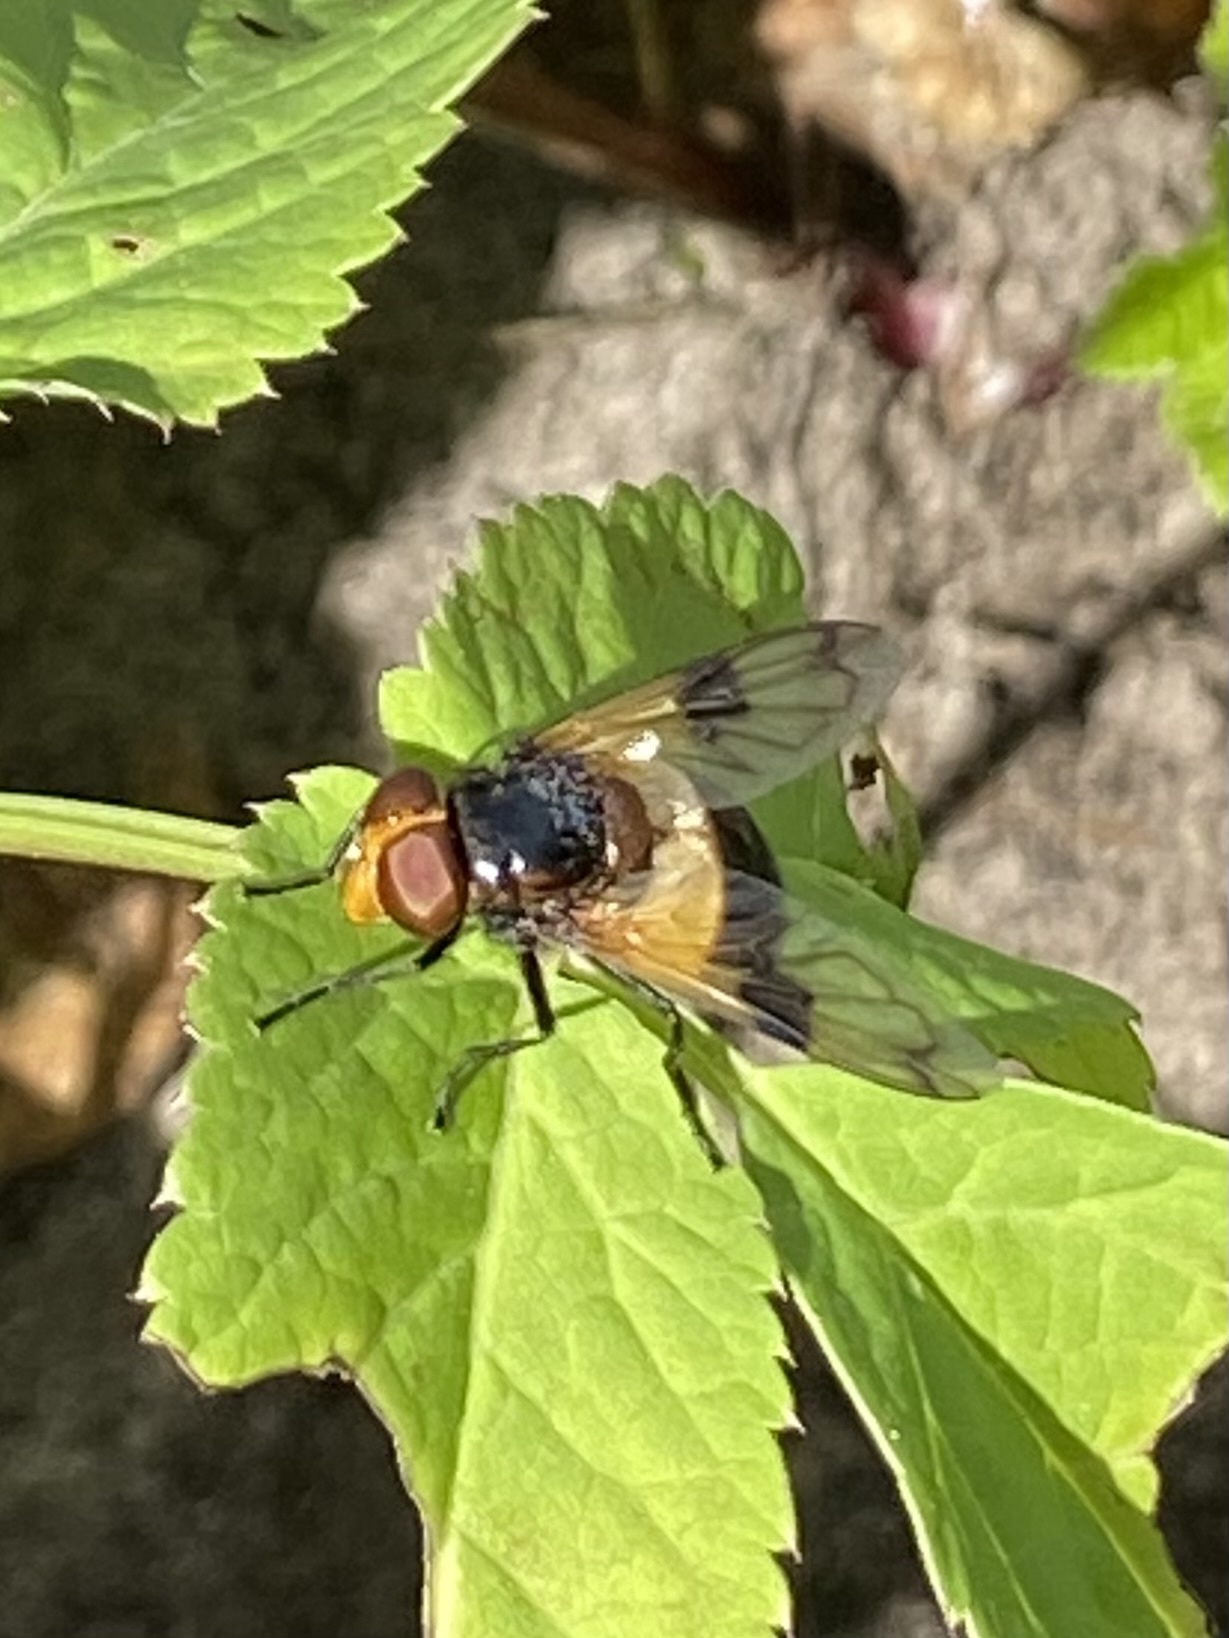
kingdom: Animalia
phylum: Arthropoda
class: Insecta
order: Diptera
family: Syrphidae
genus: Volucella
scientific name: Volucella pellucens
